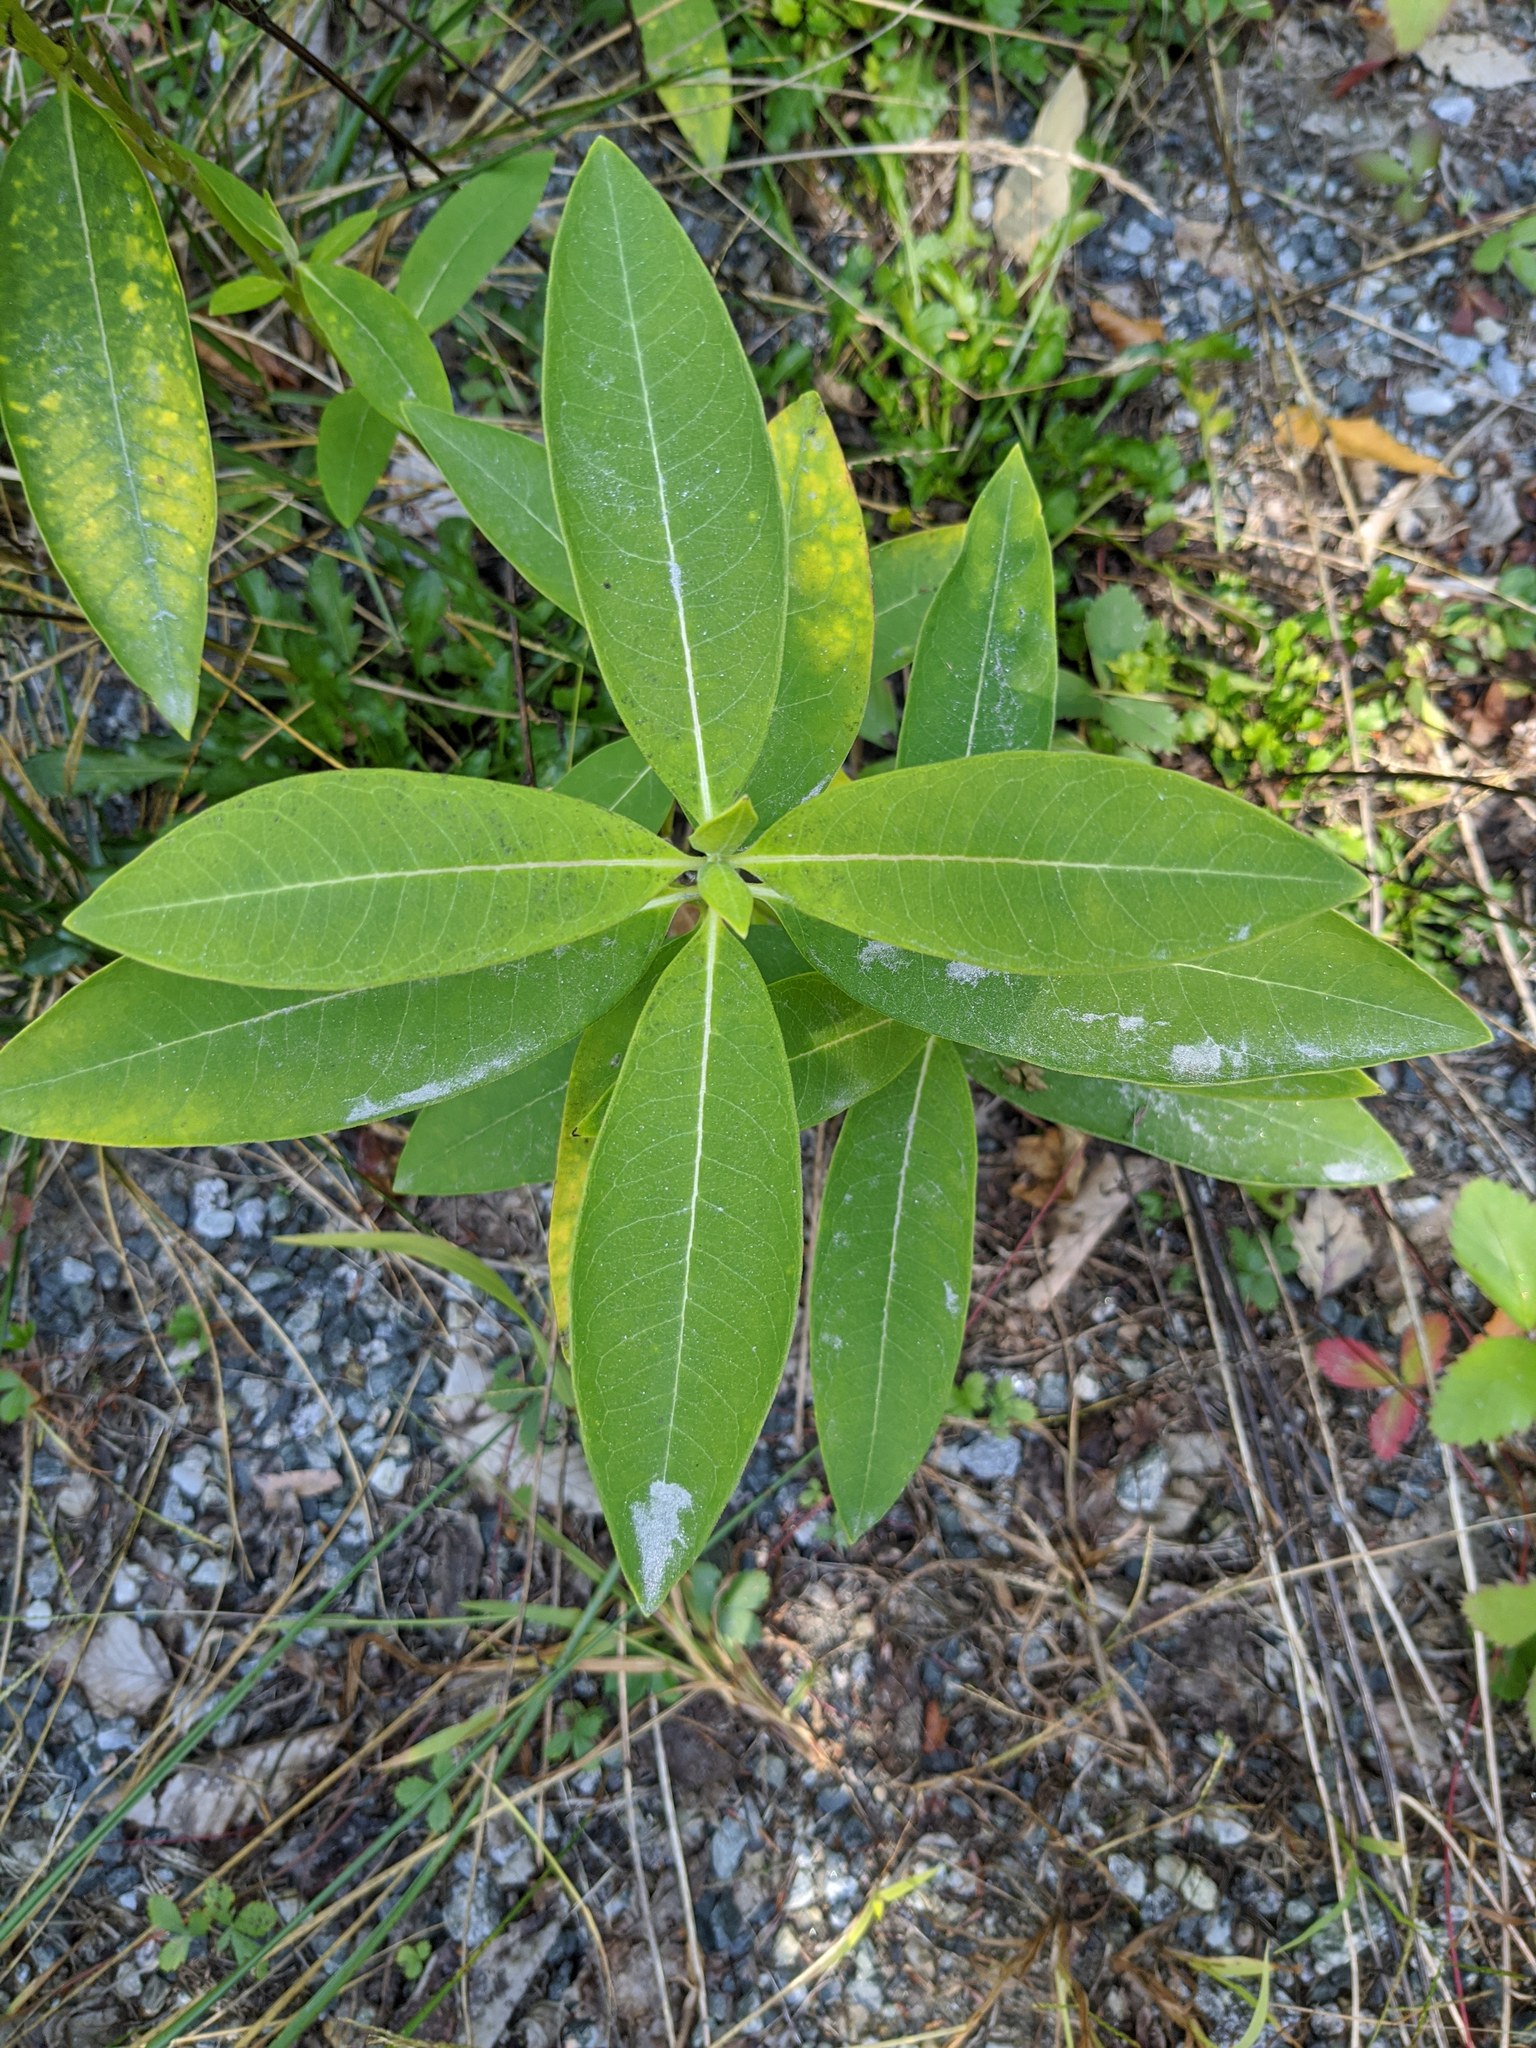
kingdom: Plantae
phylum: Tracheophyta
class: Magnoliopsida
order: Gentianales
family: Apocynaceae
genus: Asclepias
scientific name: Asclepias syriaca
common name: Common milkweed
